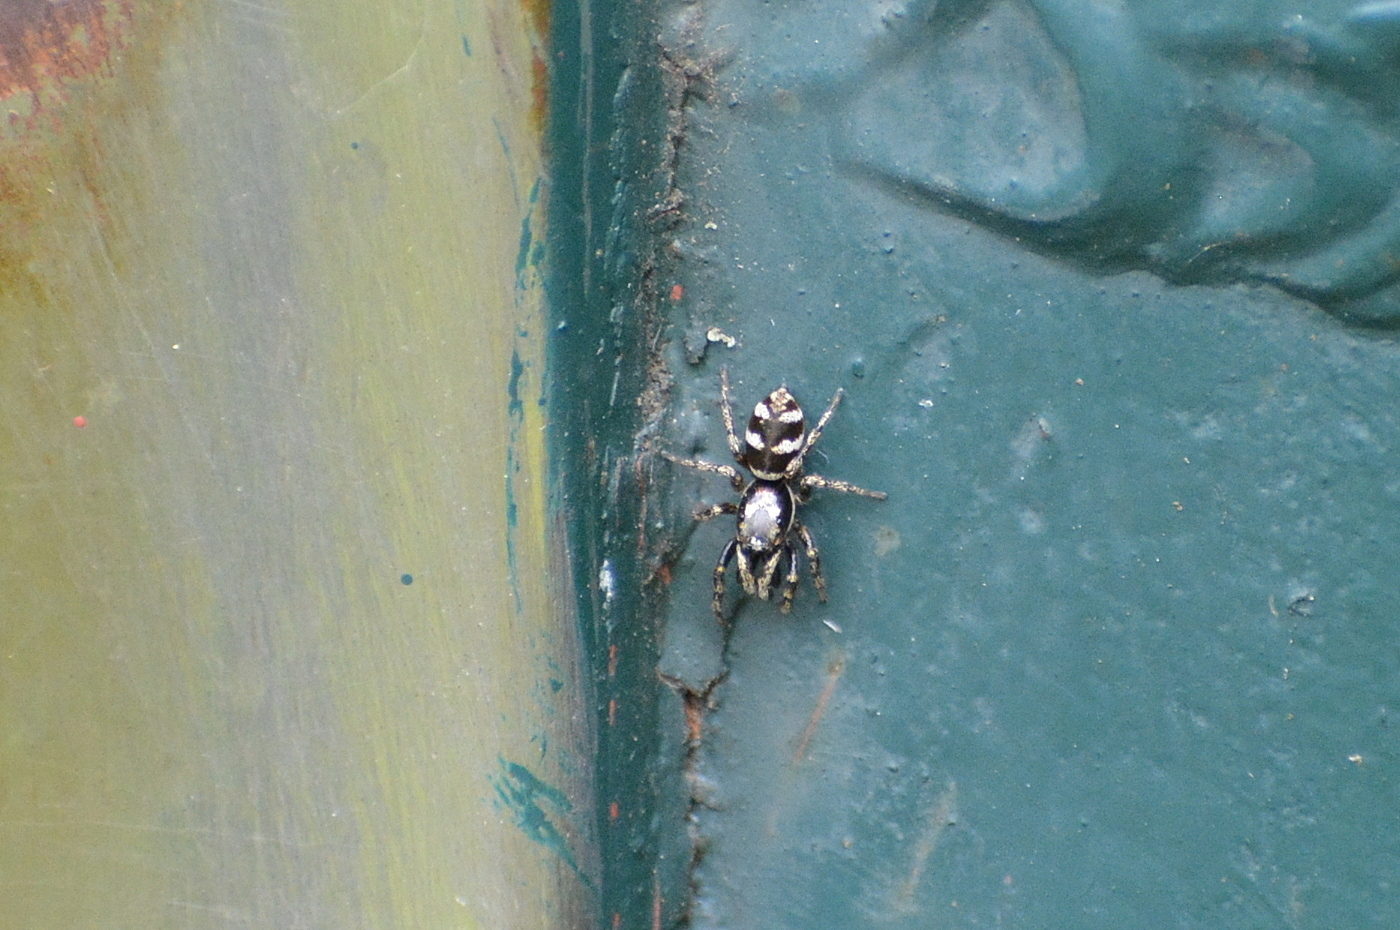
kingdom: Animalia
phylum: Arthropoda
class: Arachnida
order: Araneae
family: Salticidae
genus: Salticus
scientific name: Salticus scenicus
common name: Zebra jumper
